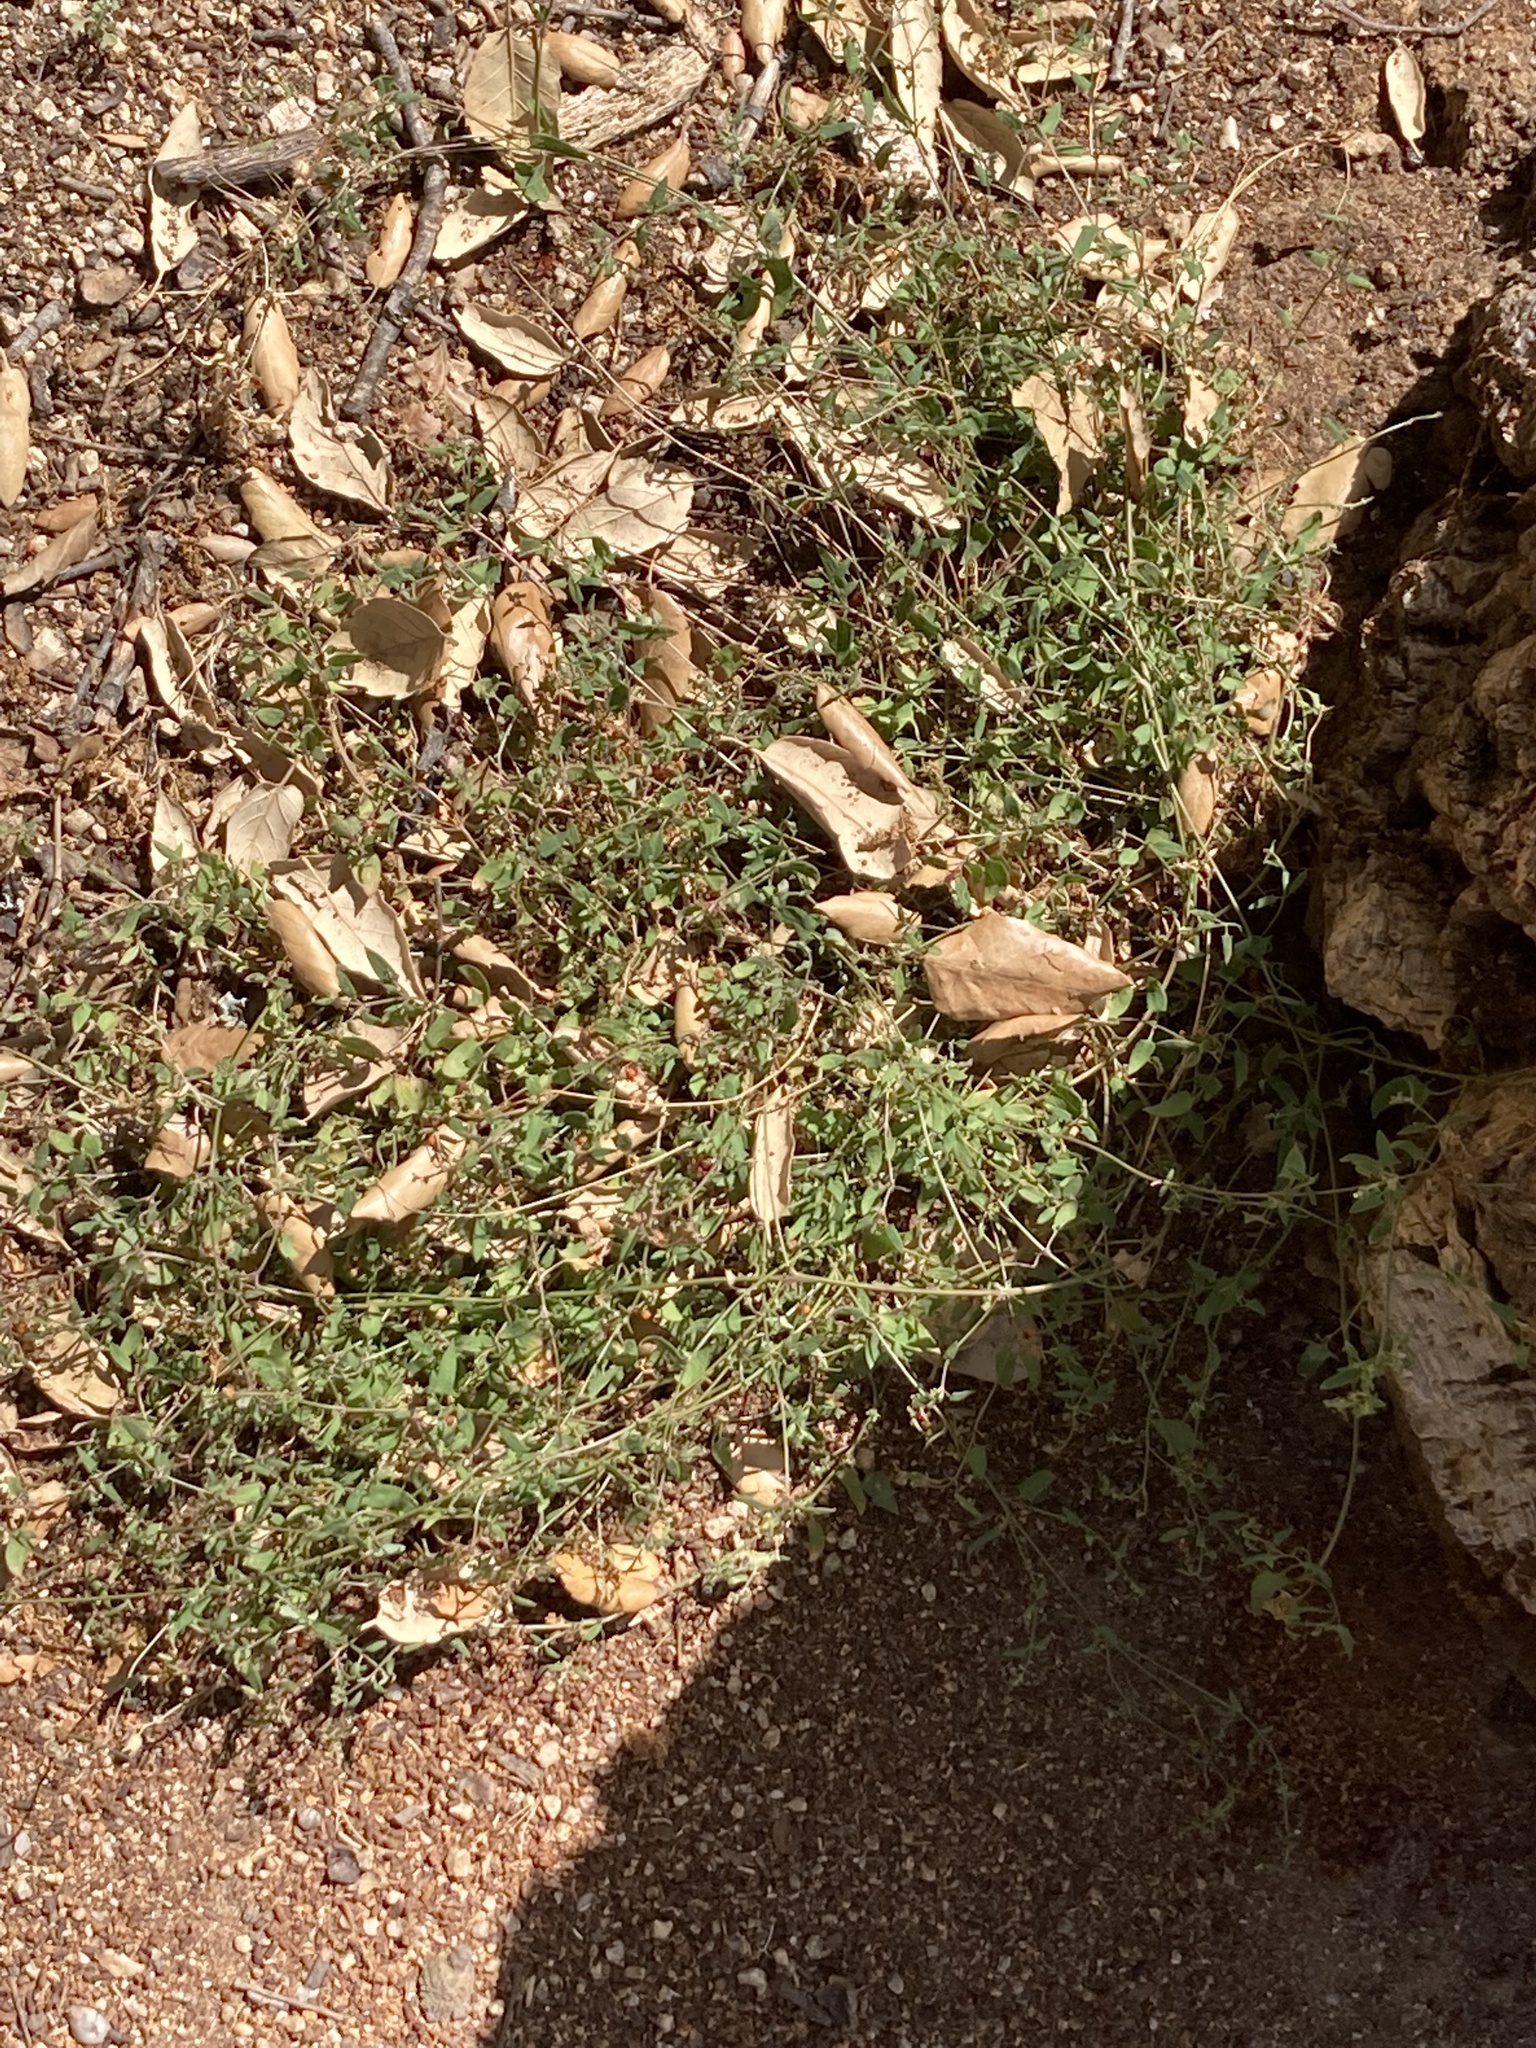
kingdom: Plantae
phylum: Tracheophyta
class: Magnoliopsida
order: Caryophyllales
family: Amaranthaceae
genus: Chenopodium
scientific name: Chenopodium nutans
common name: Climbing-saltbush
